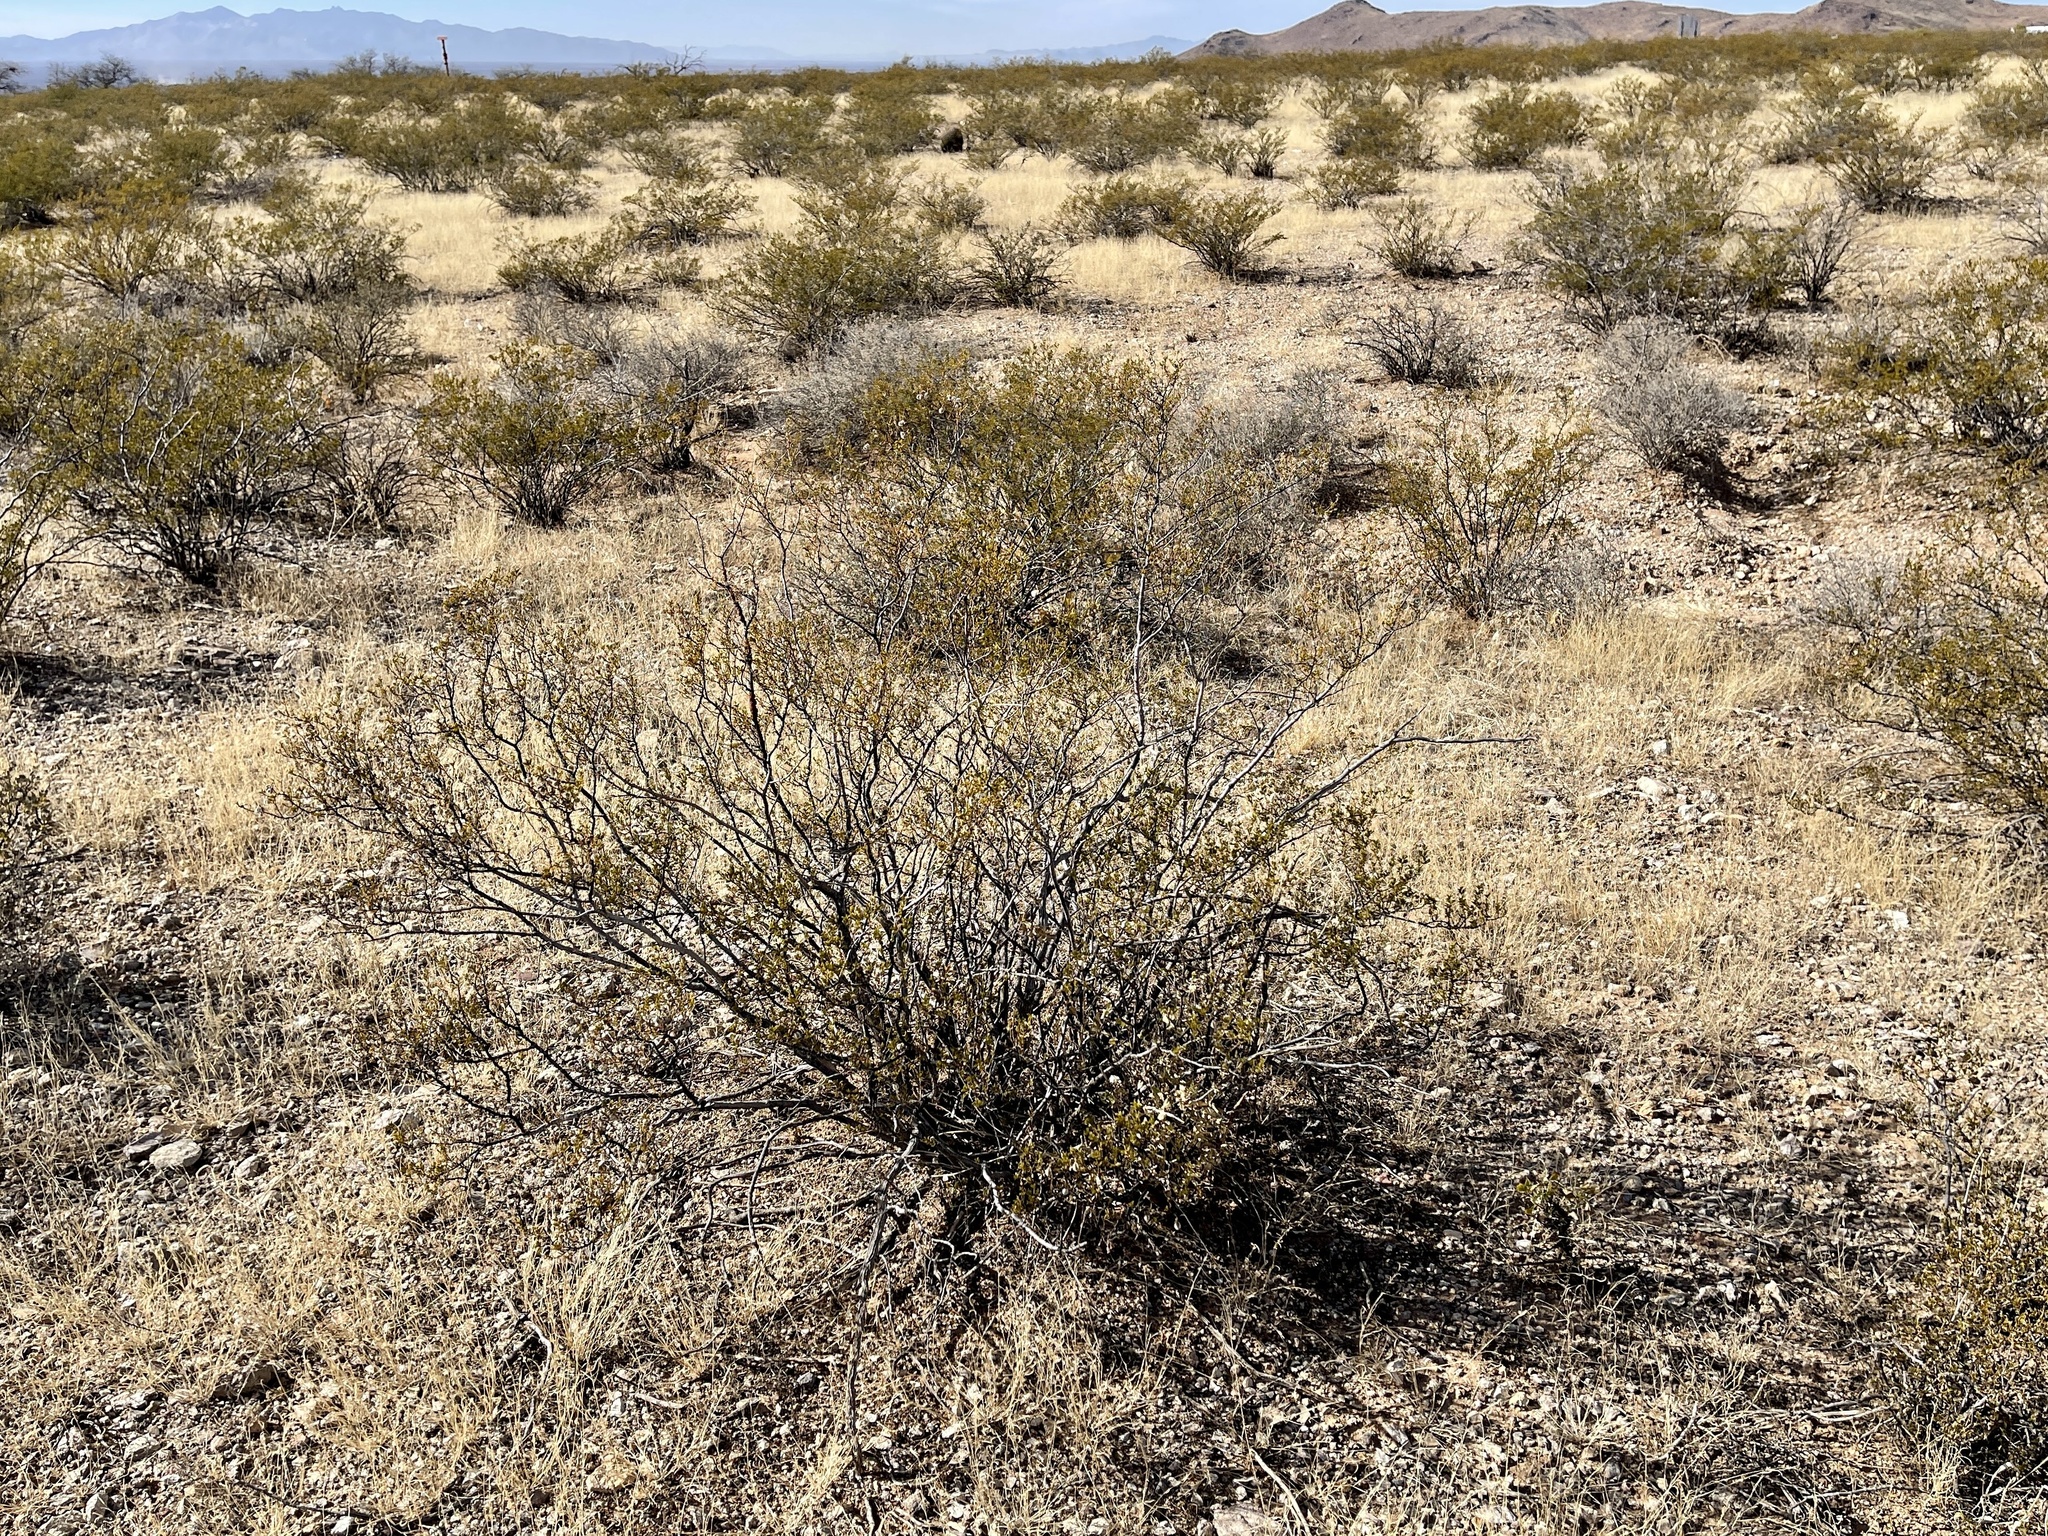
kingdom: Plantae
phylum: Tracheophyta
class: Magnoliopsida
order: Zygophyllales
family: Zygophyllaceae
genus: Larrea
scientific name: Larrea tridentata
